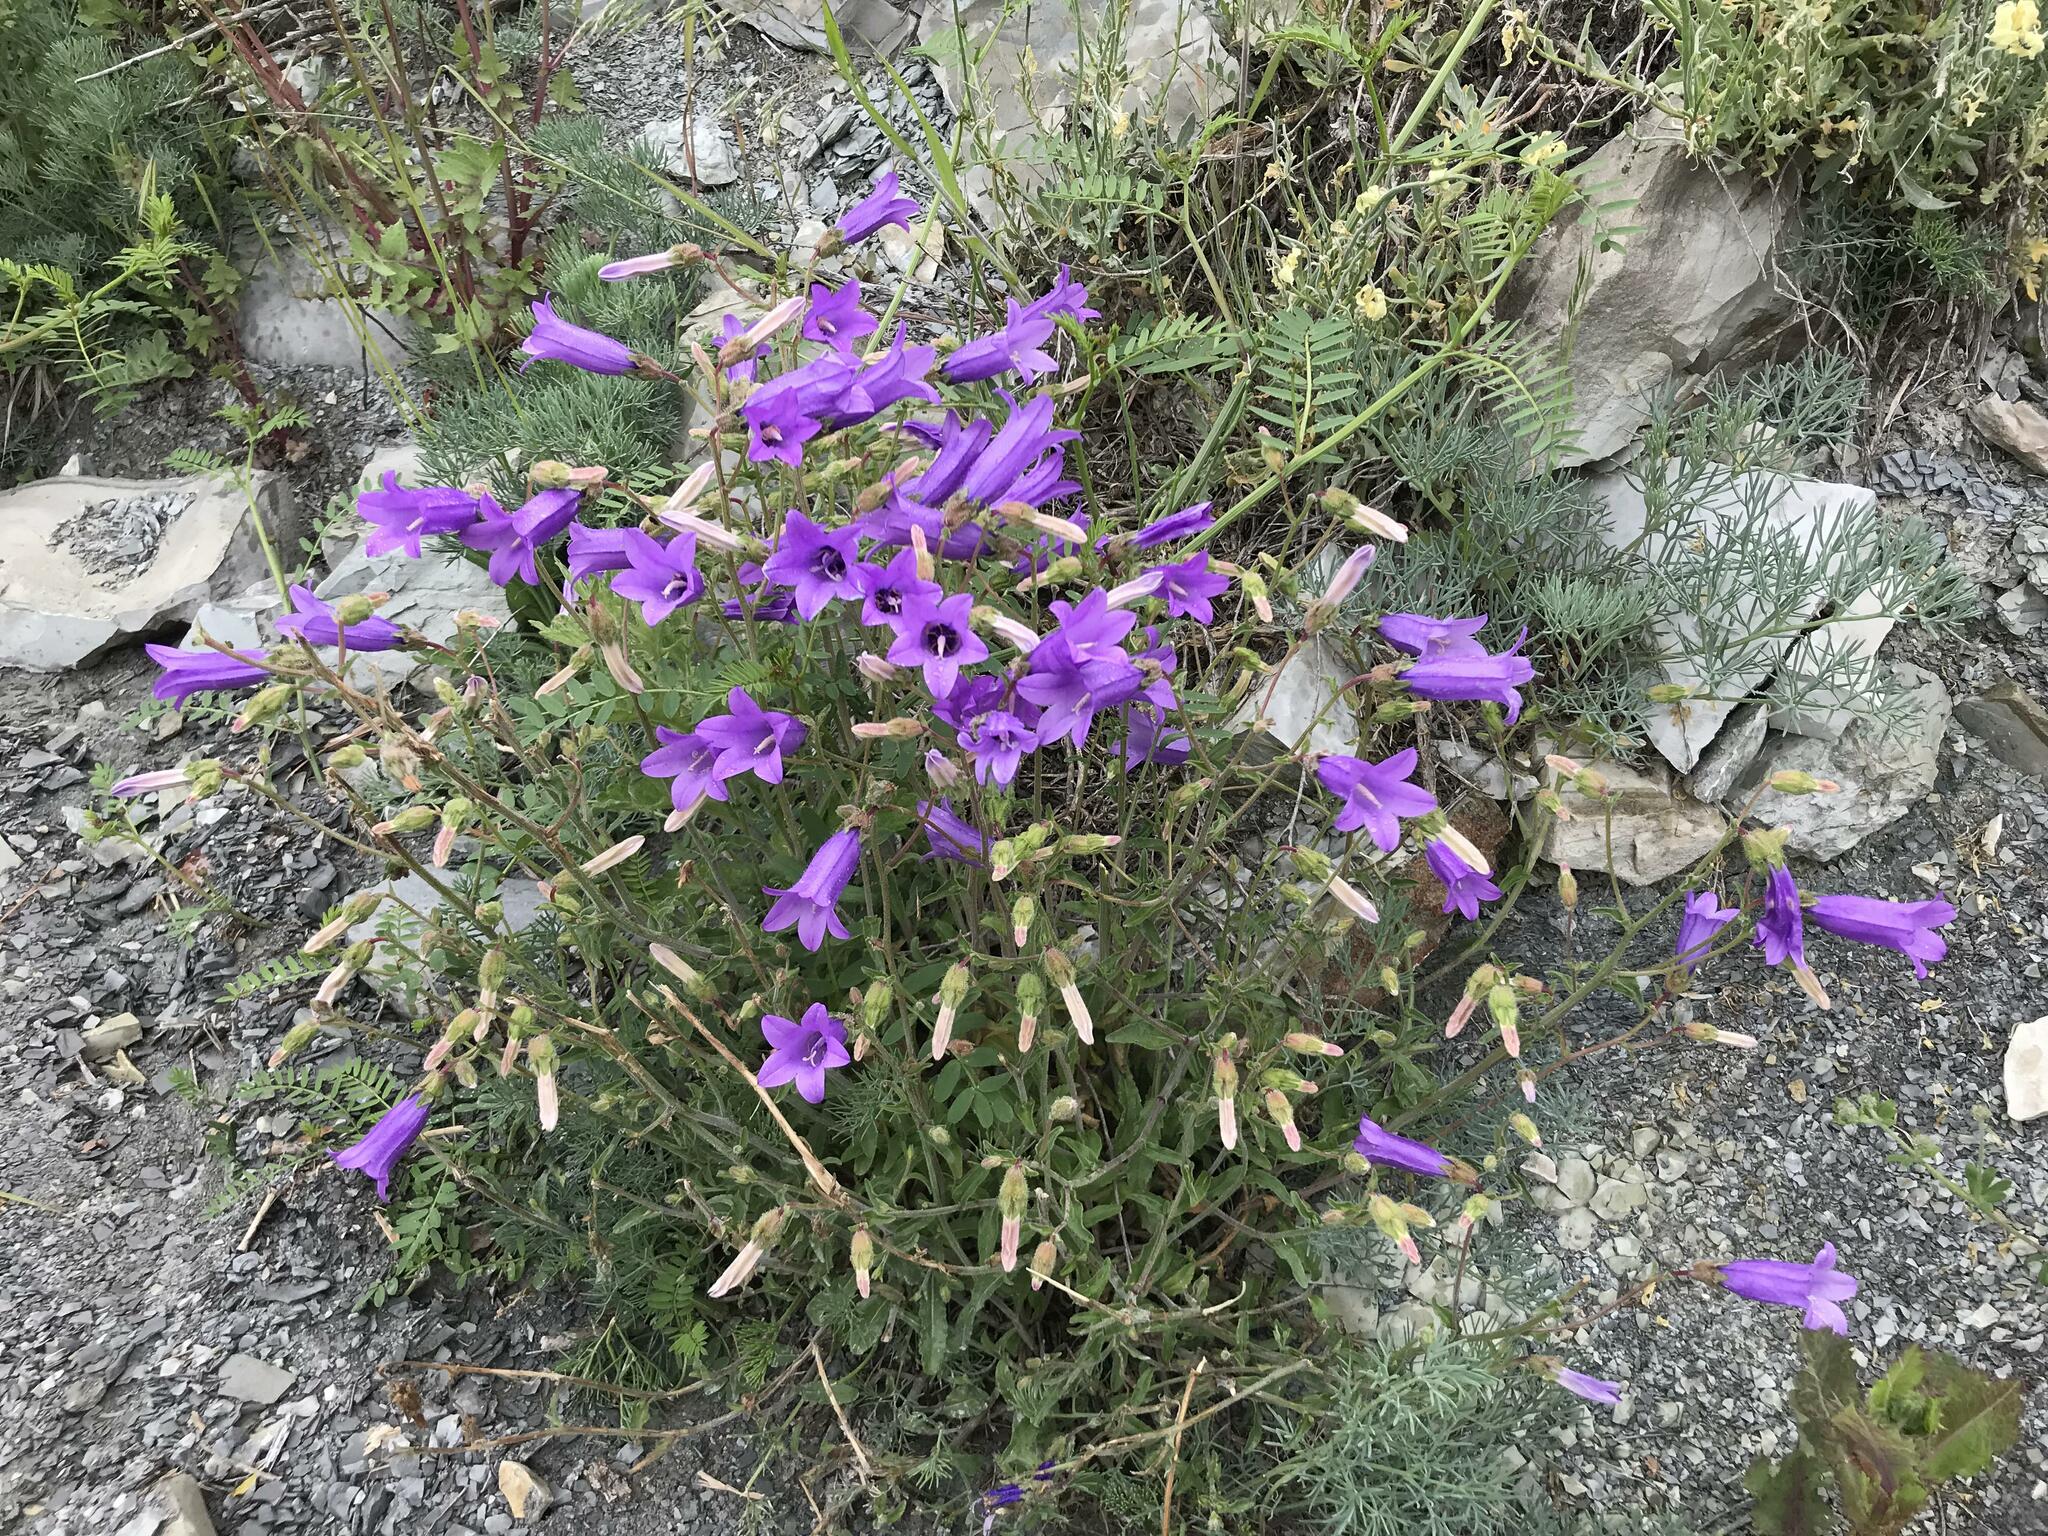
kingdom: Plantae
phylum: Tracheophyta
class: Magnoliopsida
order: Asterales
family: Campanulaceae
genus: Campanula
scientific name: Campanula komarovii
